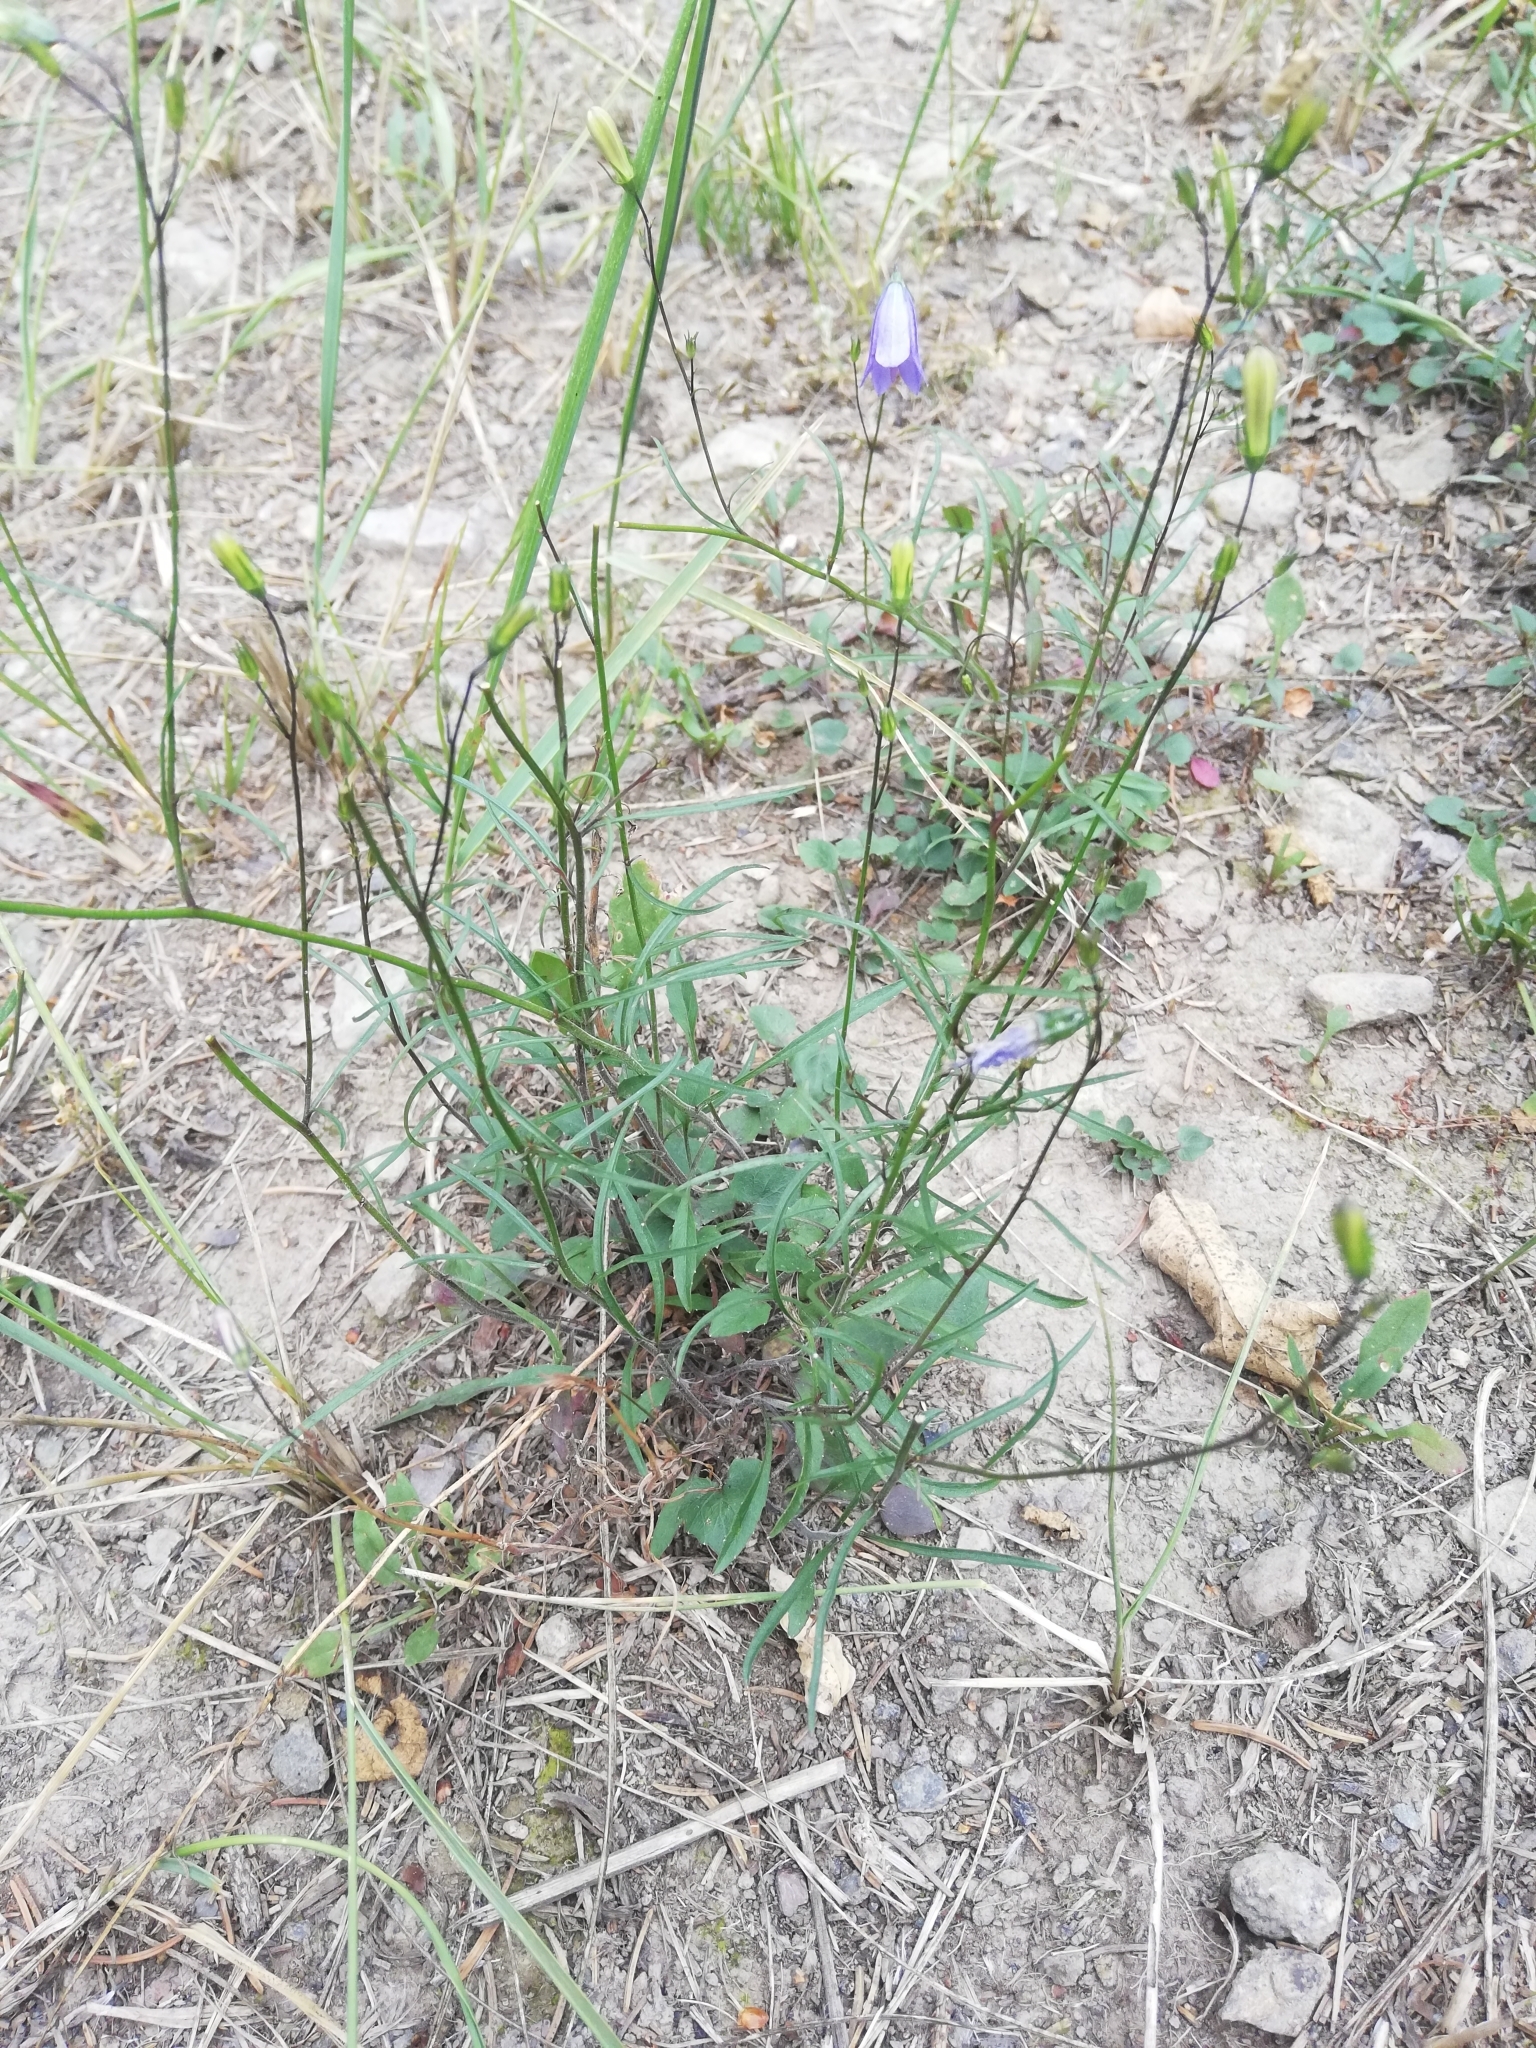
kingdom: Plantae
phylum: Tracheophyta
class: Magnoliopsida
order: Asterales
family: Campanulaceae
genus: Campanula
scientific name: Campanula rotundifolia
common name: Harebell
